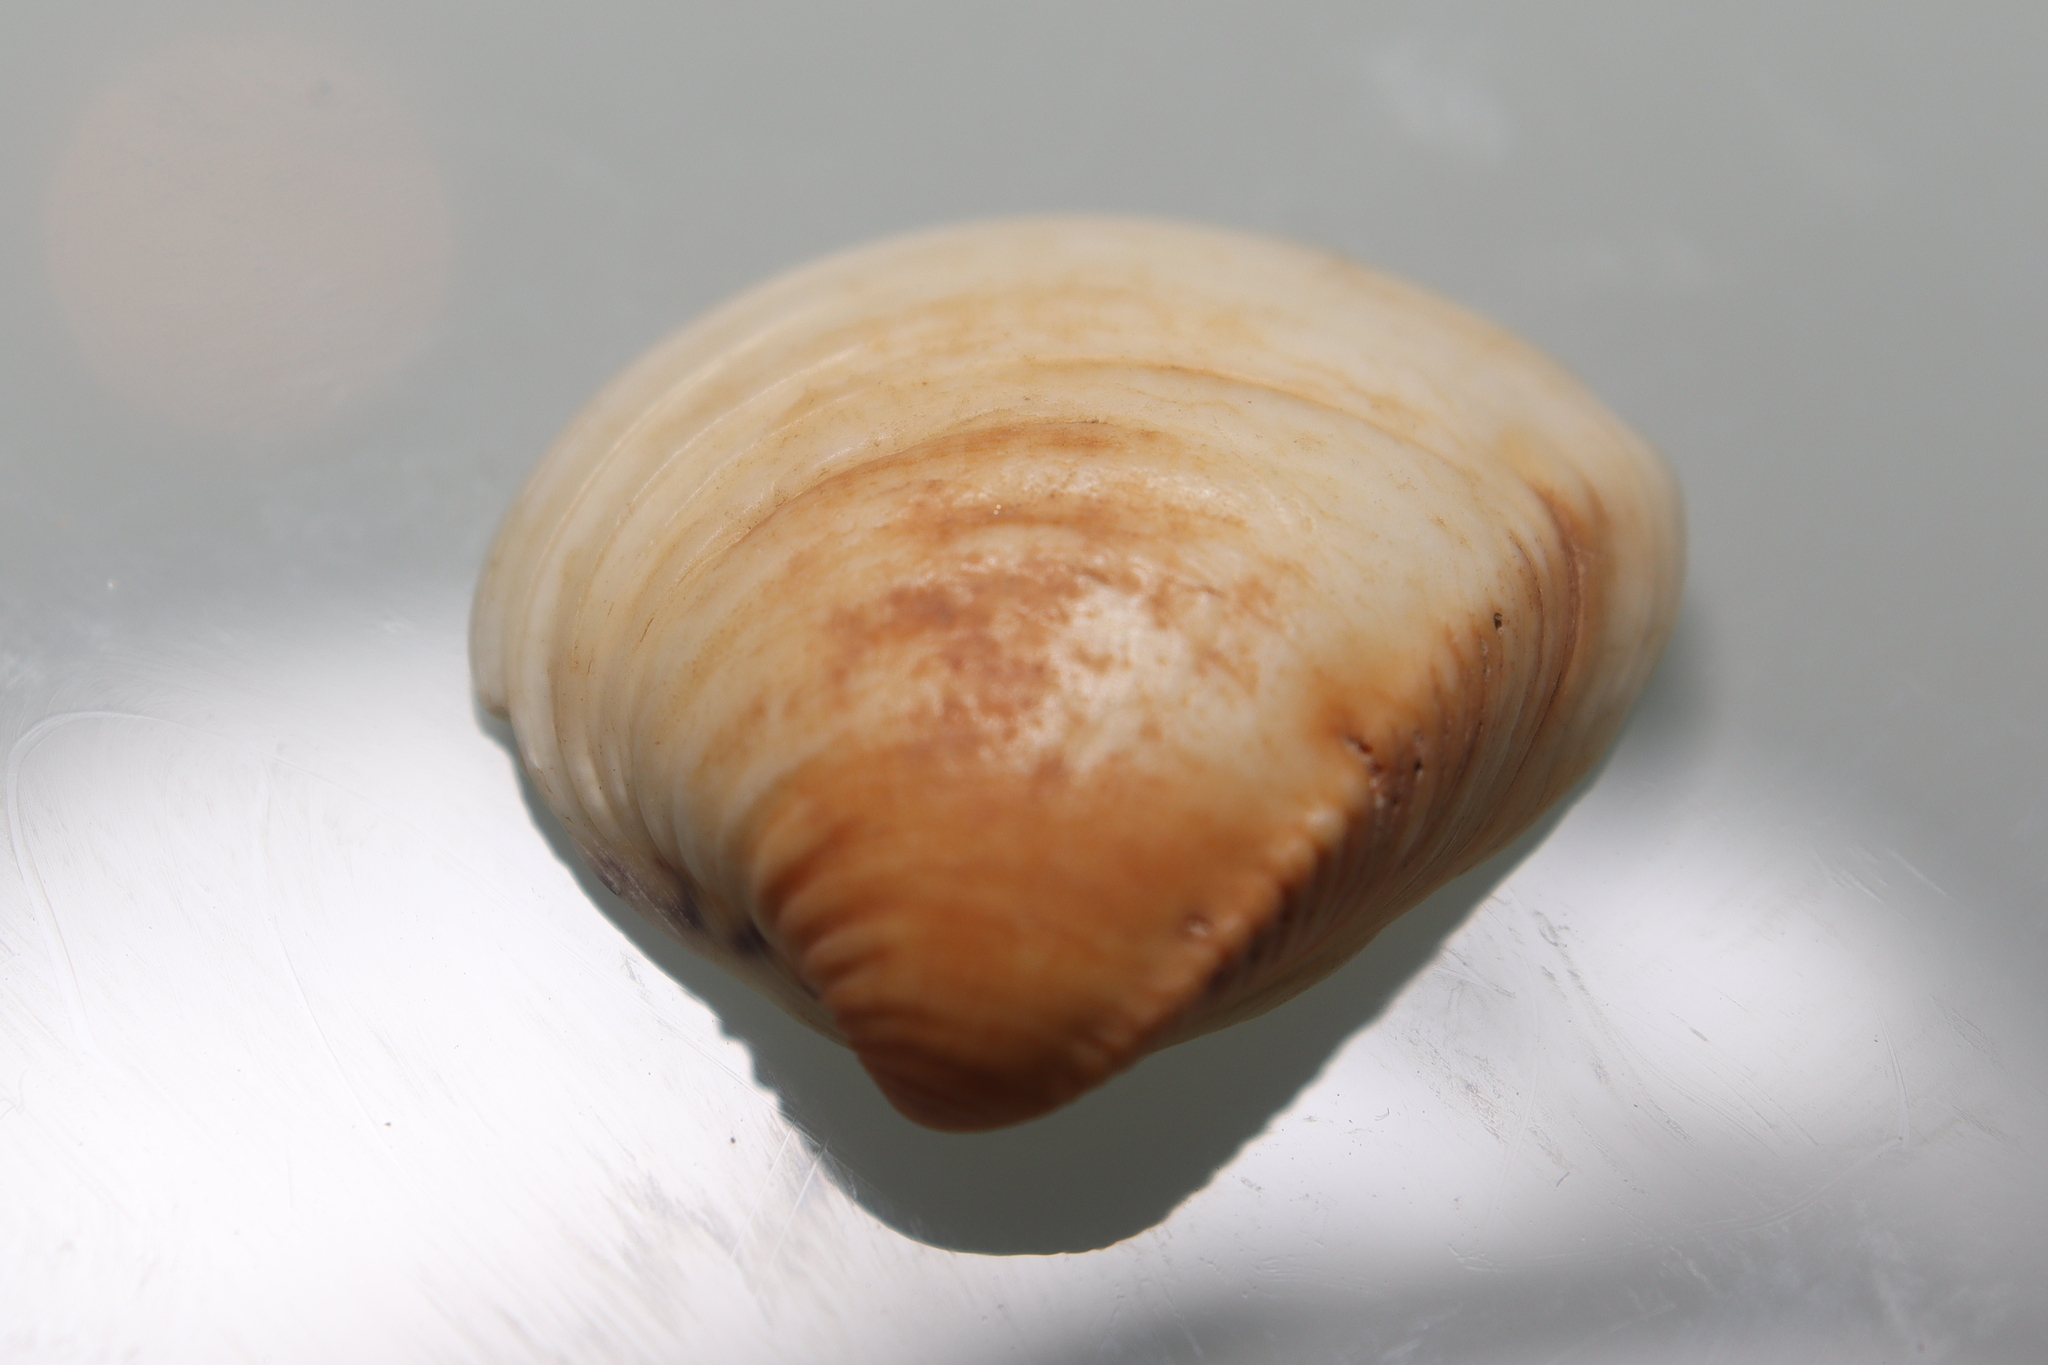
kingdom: Animalia
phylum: Mollusca
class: Bivalvia
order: Venerida
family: Veneridae
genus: Anomalocardia
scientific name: Anomalocardia flexuosa
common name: Carib pointed venus
